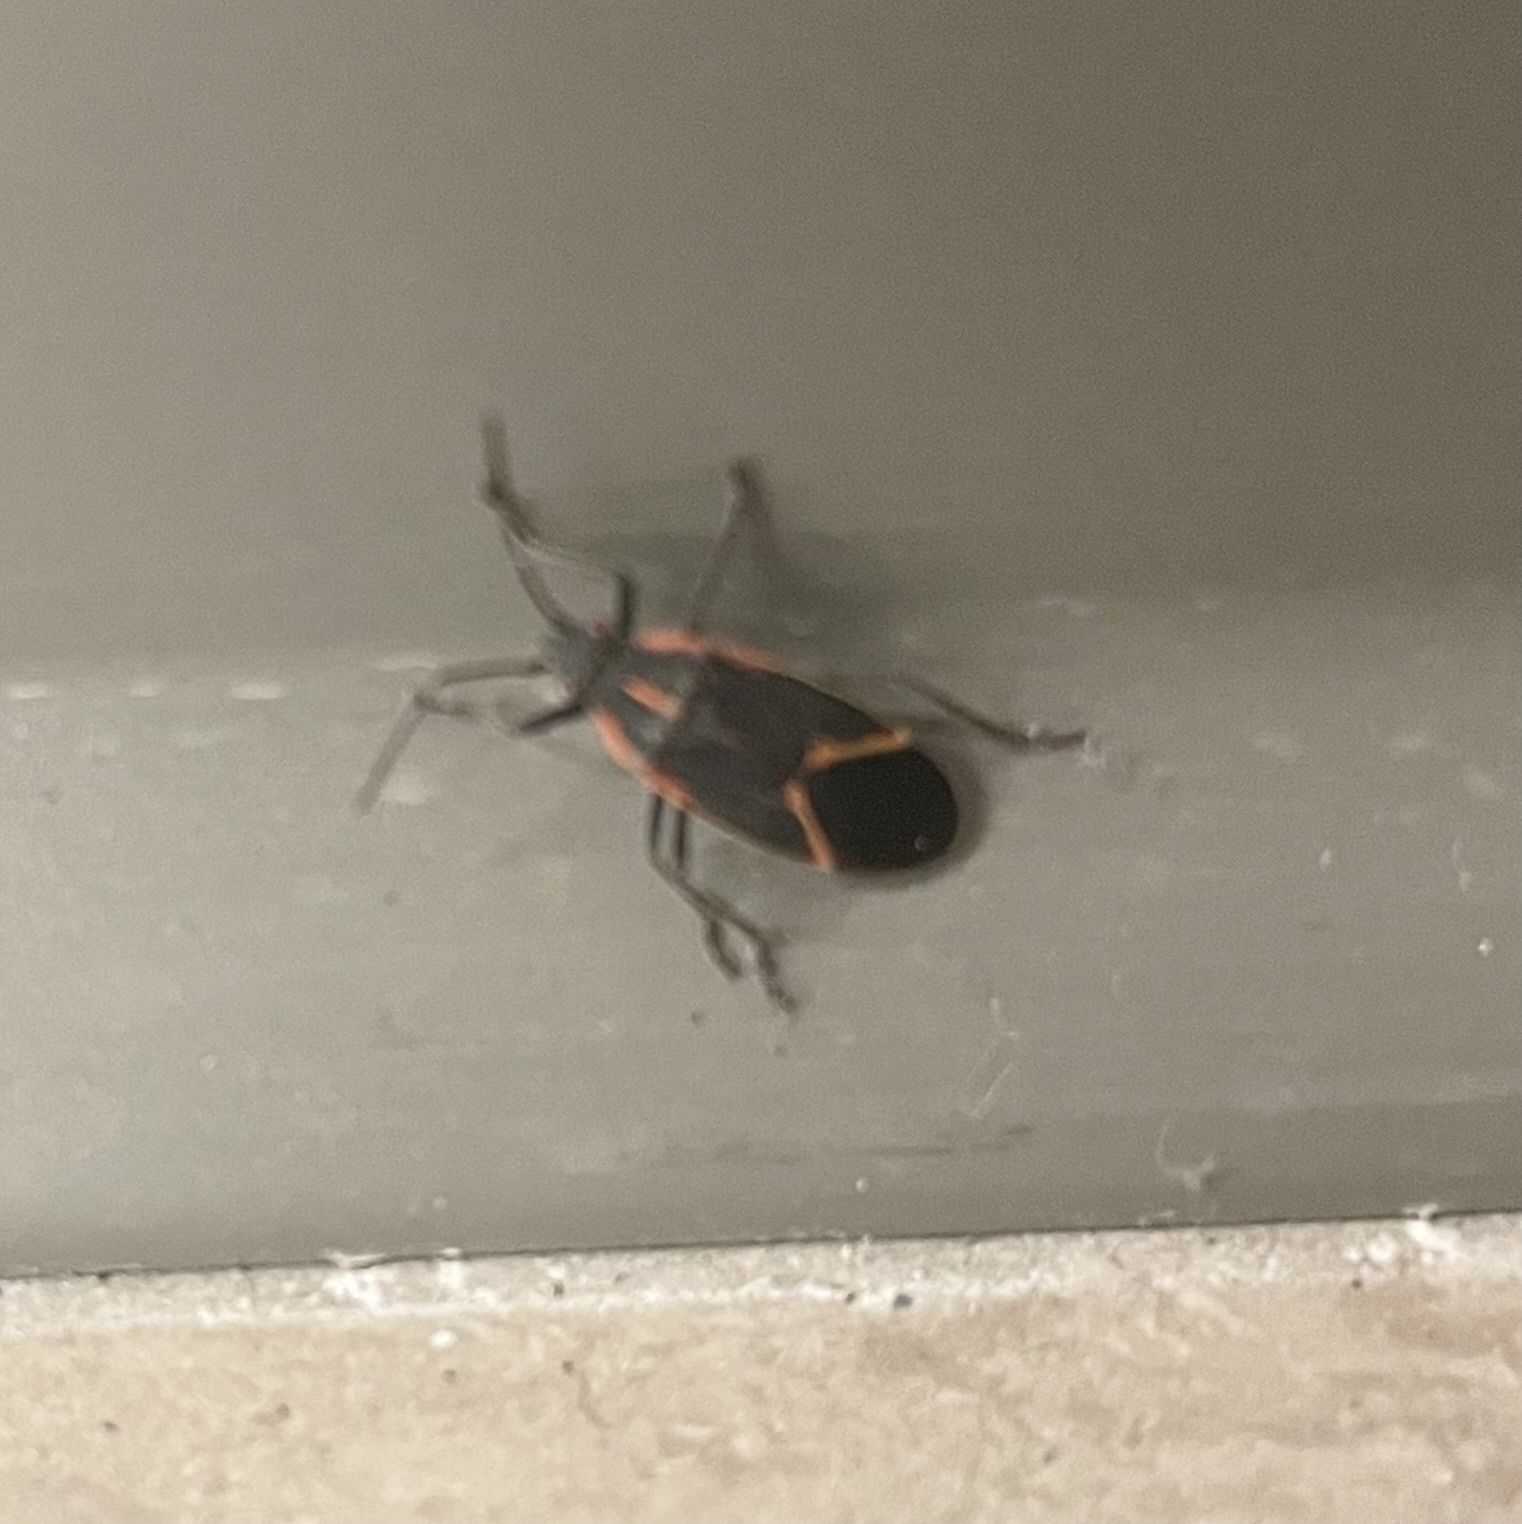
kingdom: Animalia
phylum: Arthropoda
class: Insecta
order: Hemiptera
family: Rhopalidae
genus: Boisea
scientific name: Boisea trivittata
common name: Boxelder bug
